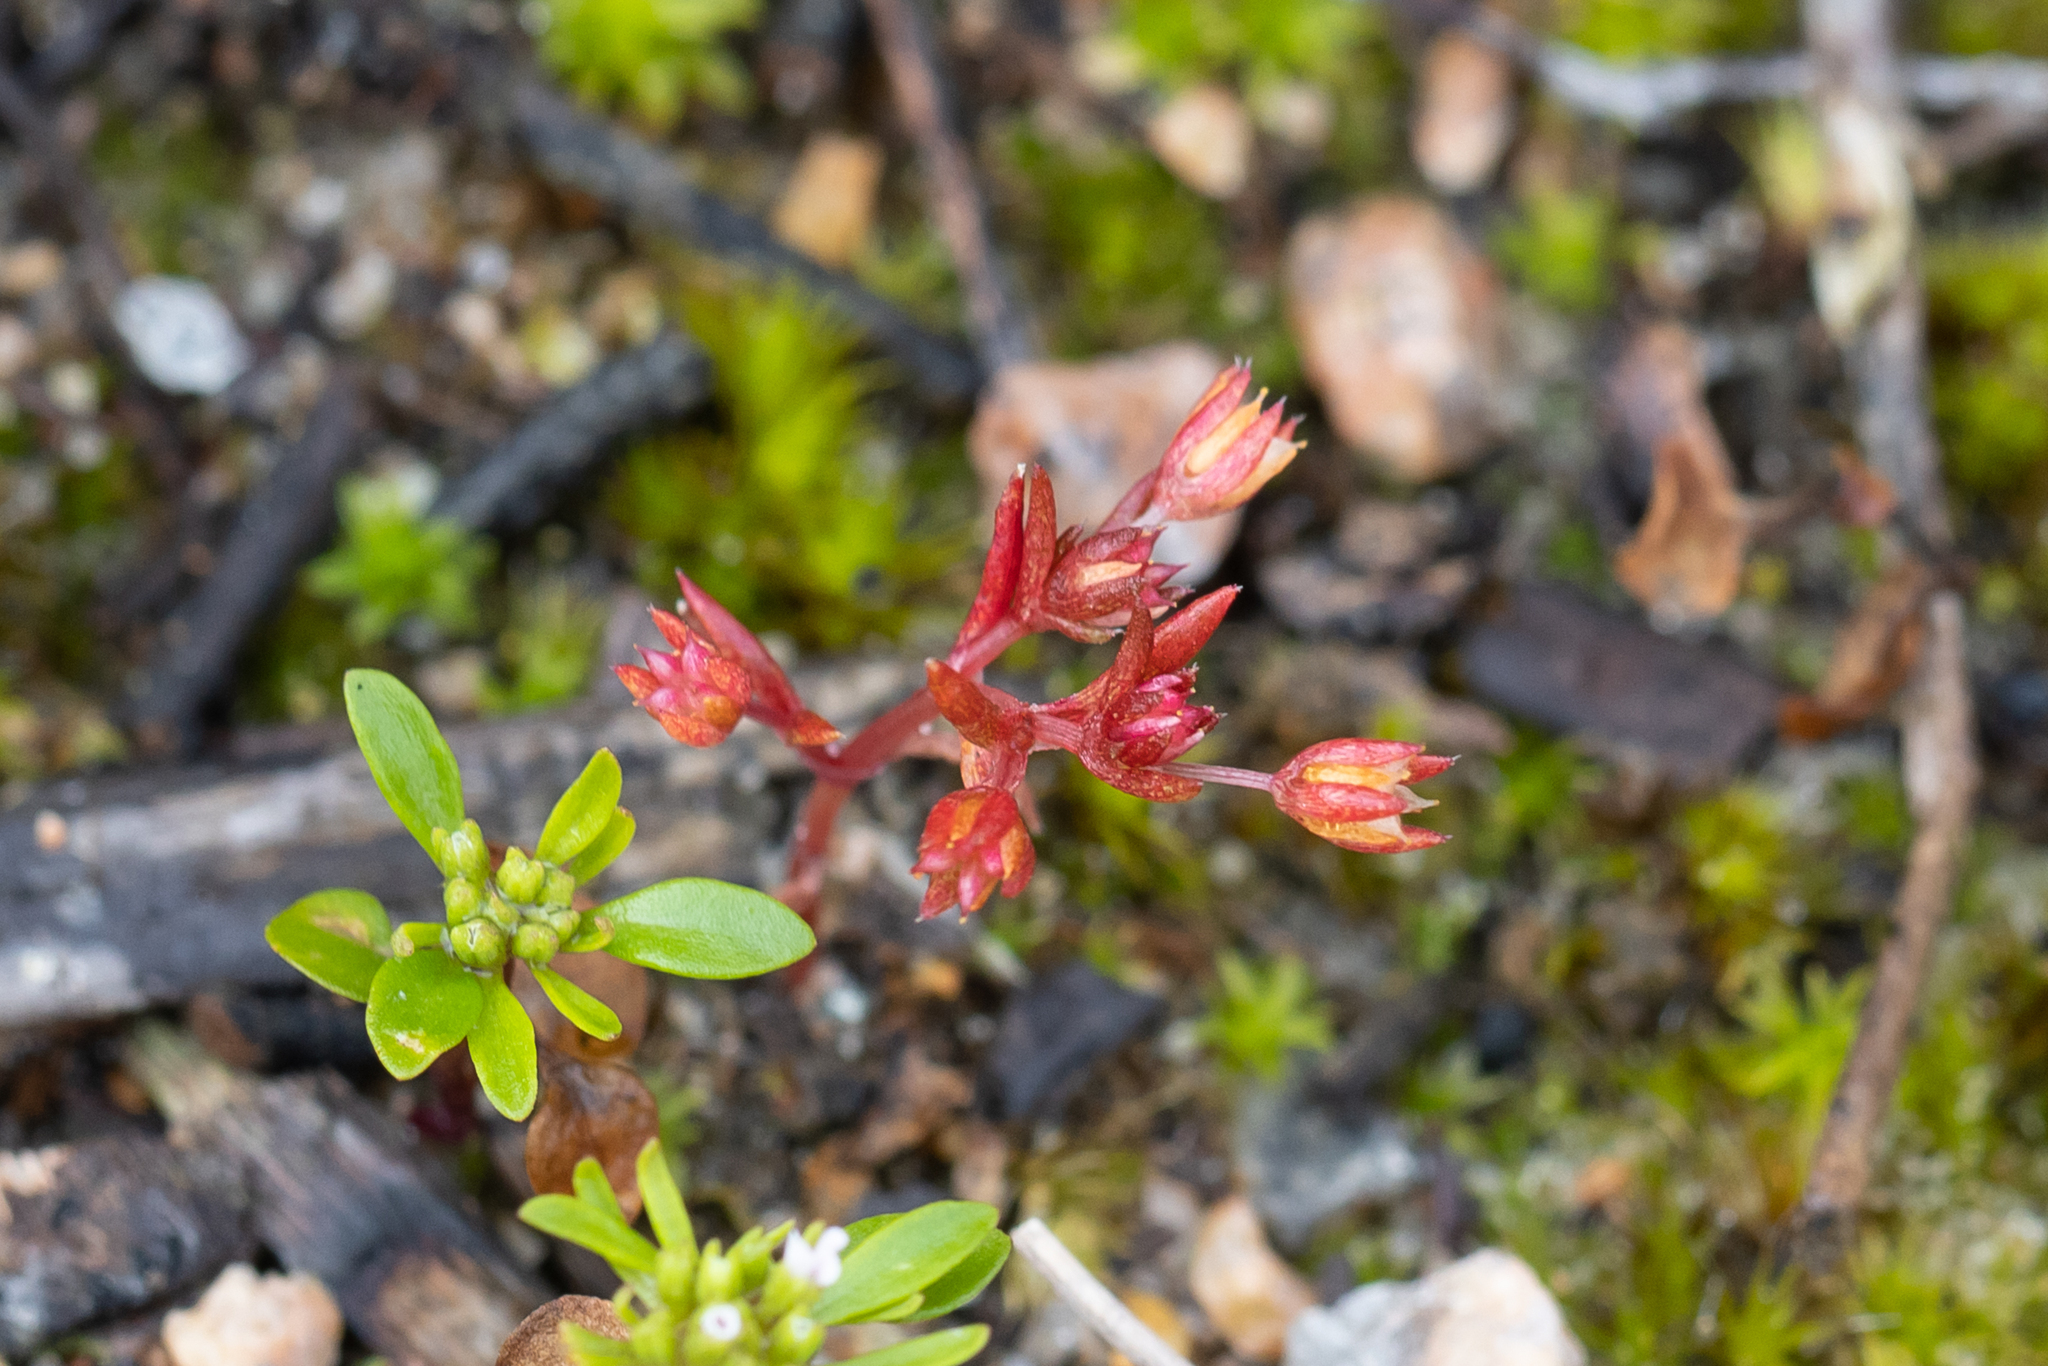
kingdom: Plantae
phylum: Tracheophyta
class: Magnoliopsida
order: Saxifragales
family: Crassulaceae
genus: Crassula
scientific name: Crassula decumbens
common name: Scilly pigmyweed
